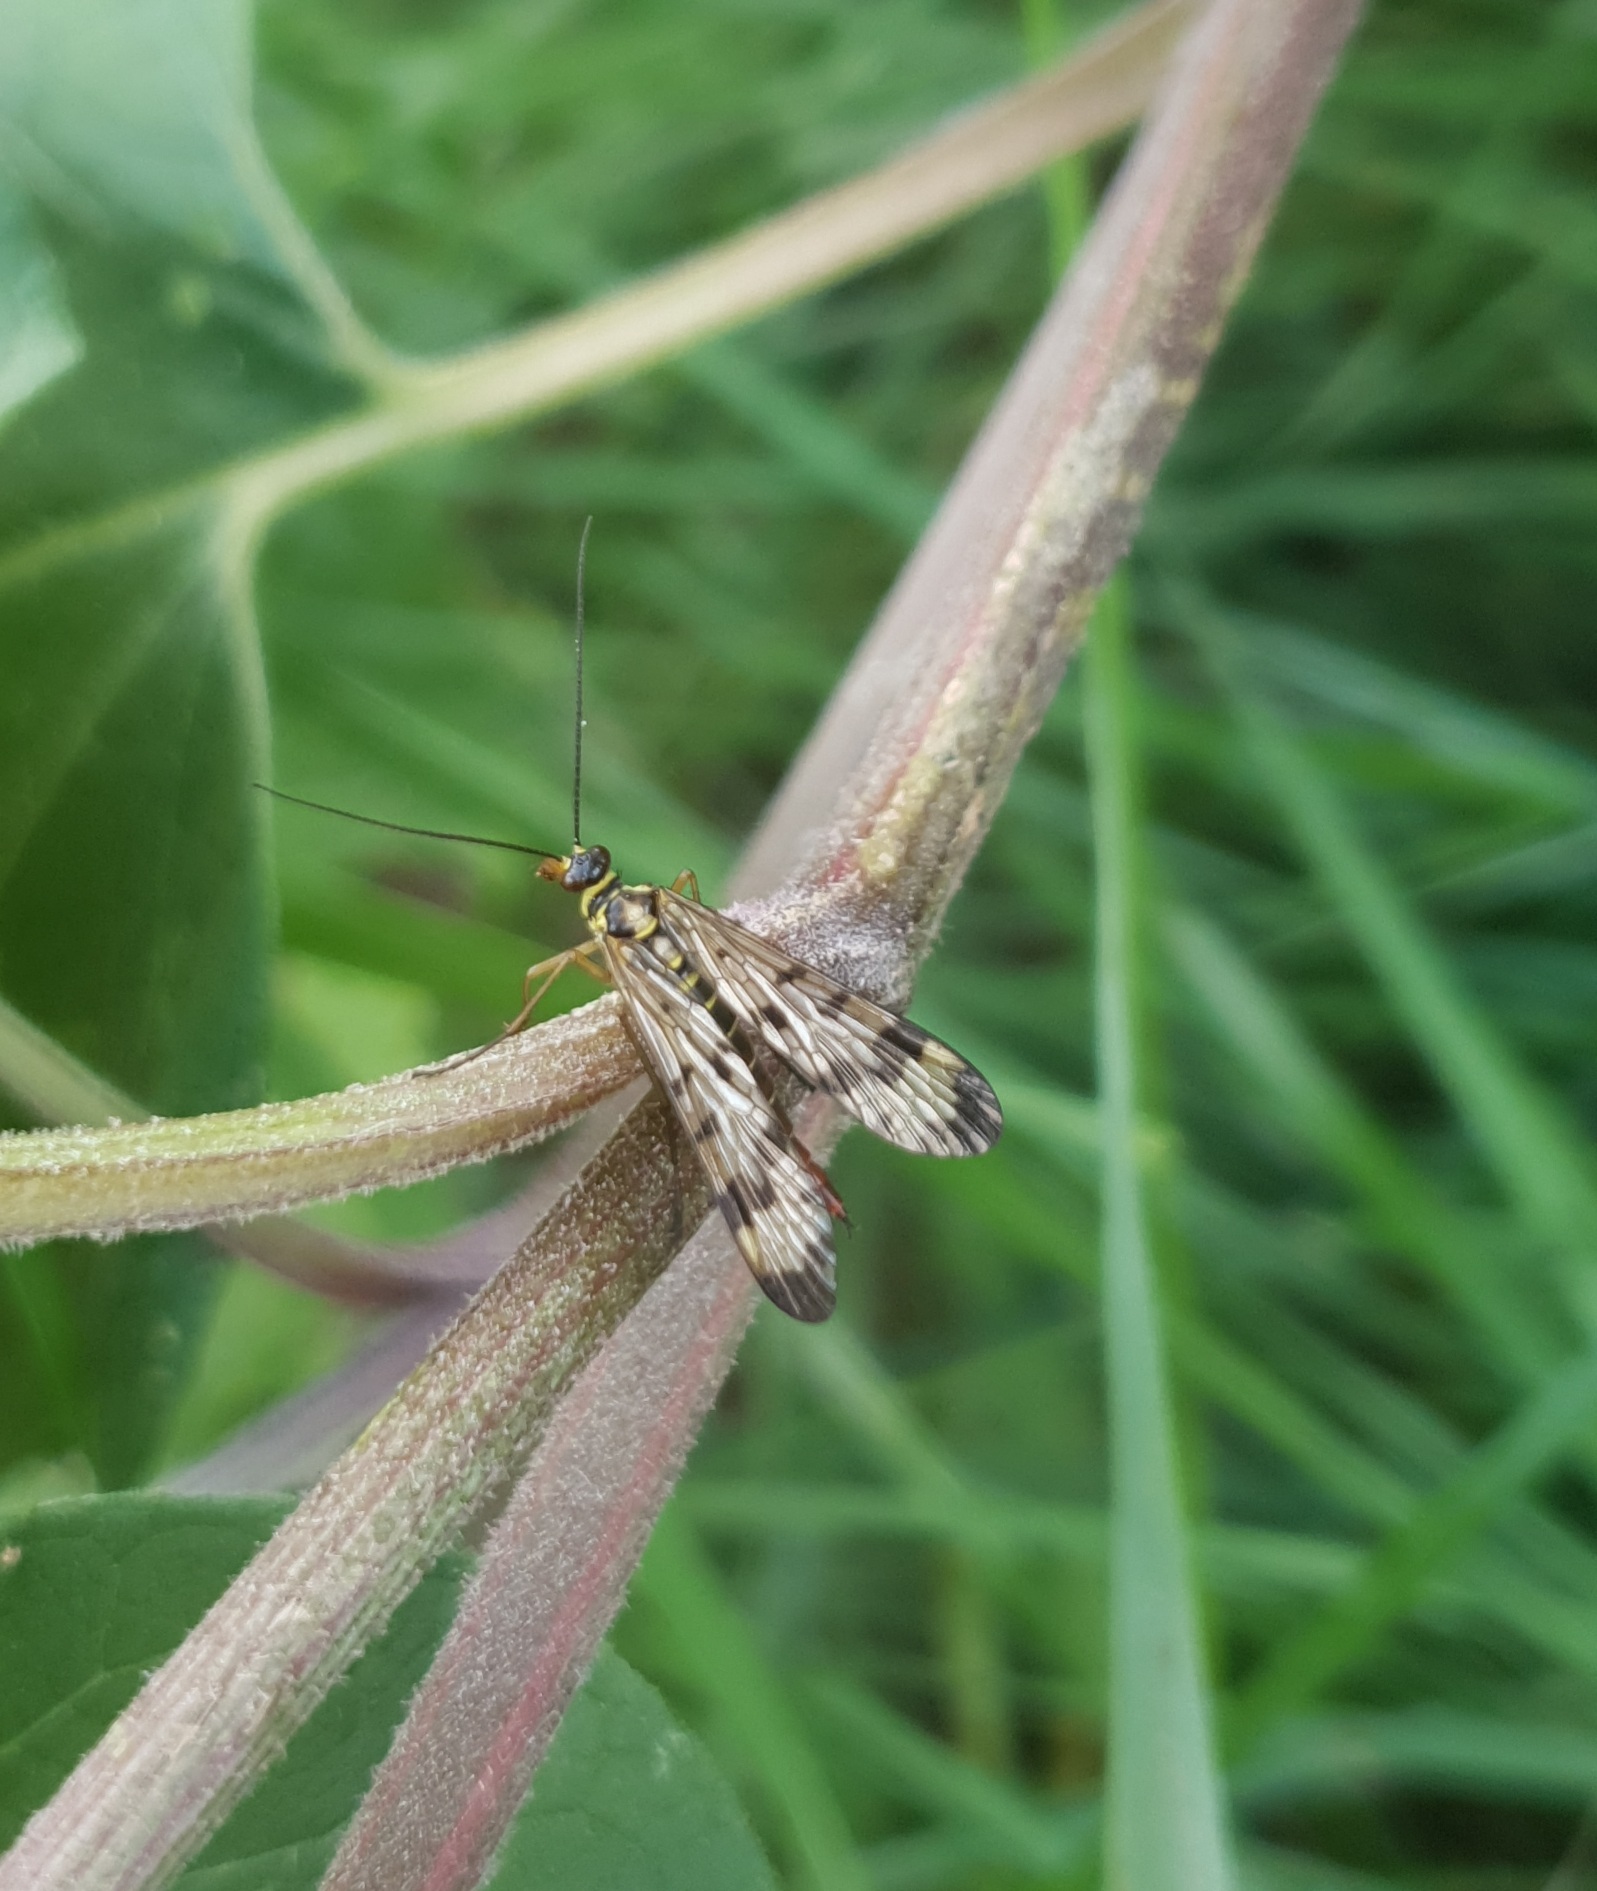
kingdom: Animalia
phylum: Arthropoda
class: Insecta
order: Mecoptera
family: Panorpidae
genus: Panorpa
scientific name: Panorpa communis
